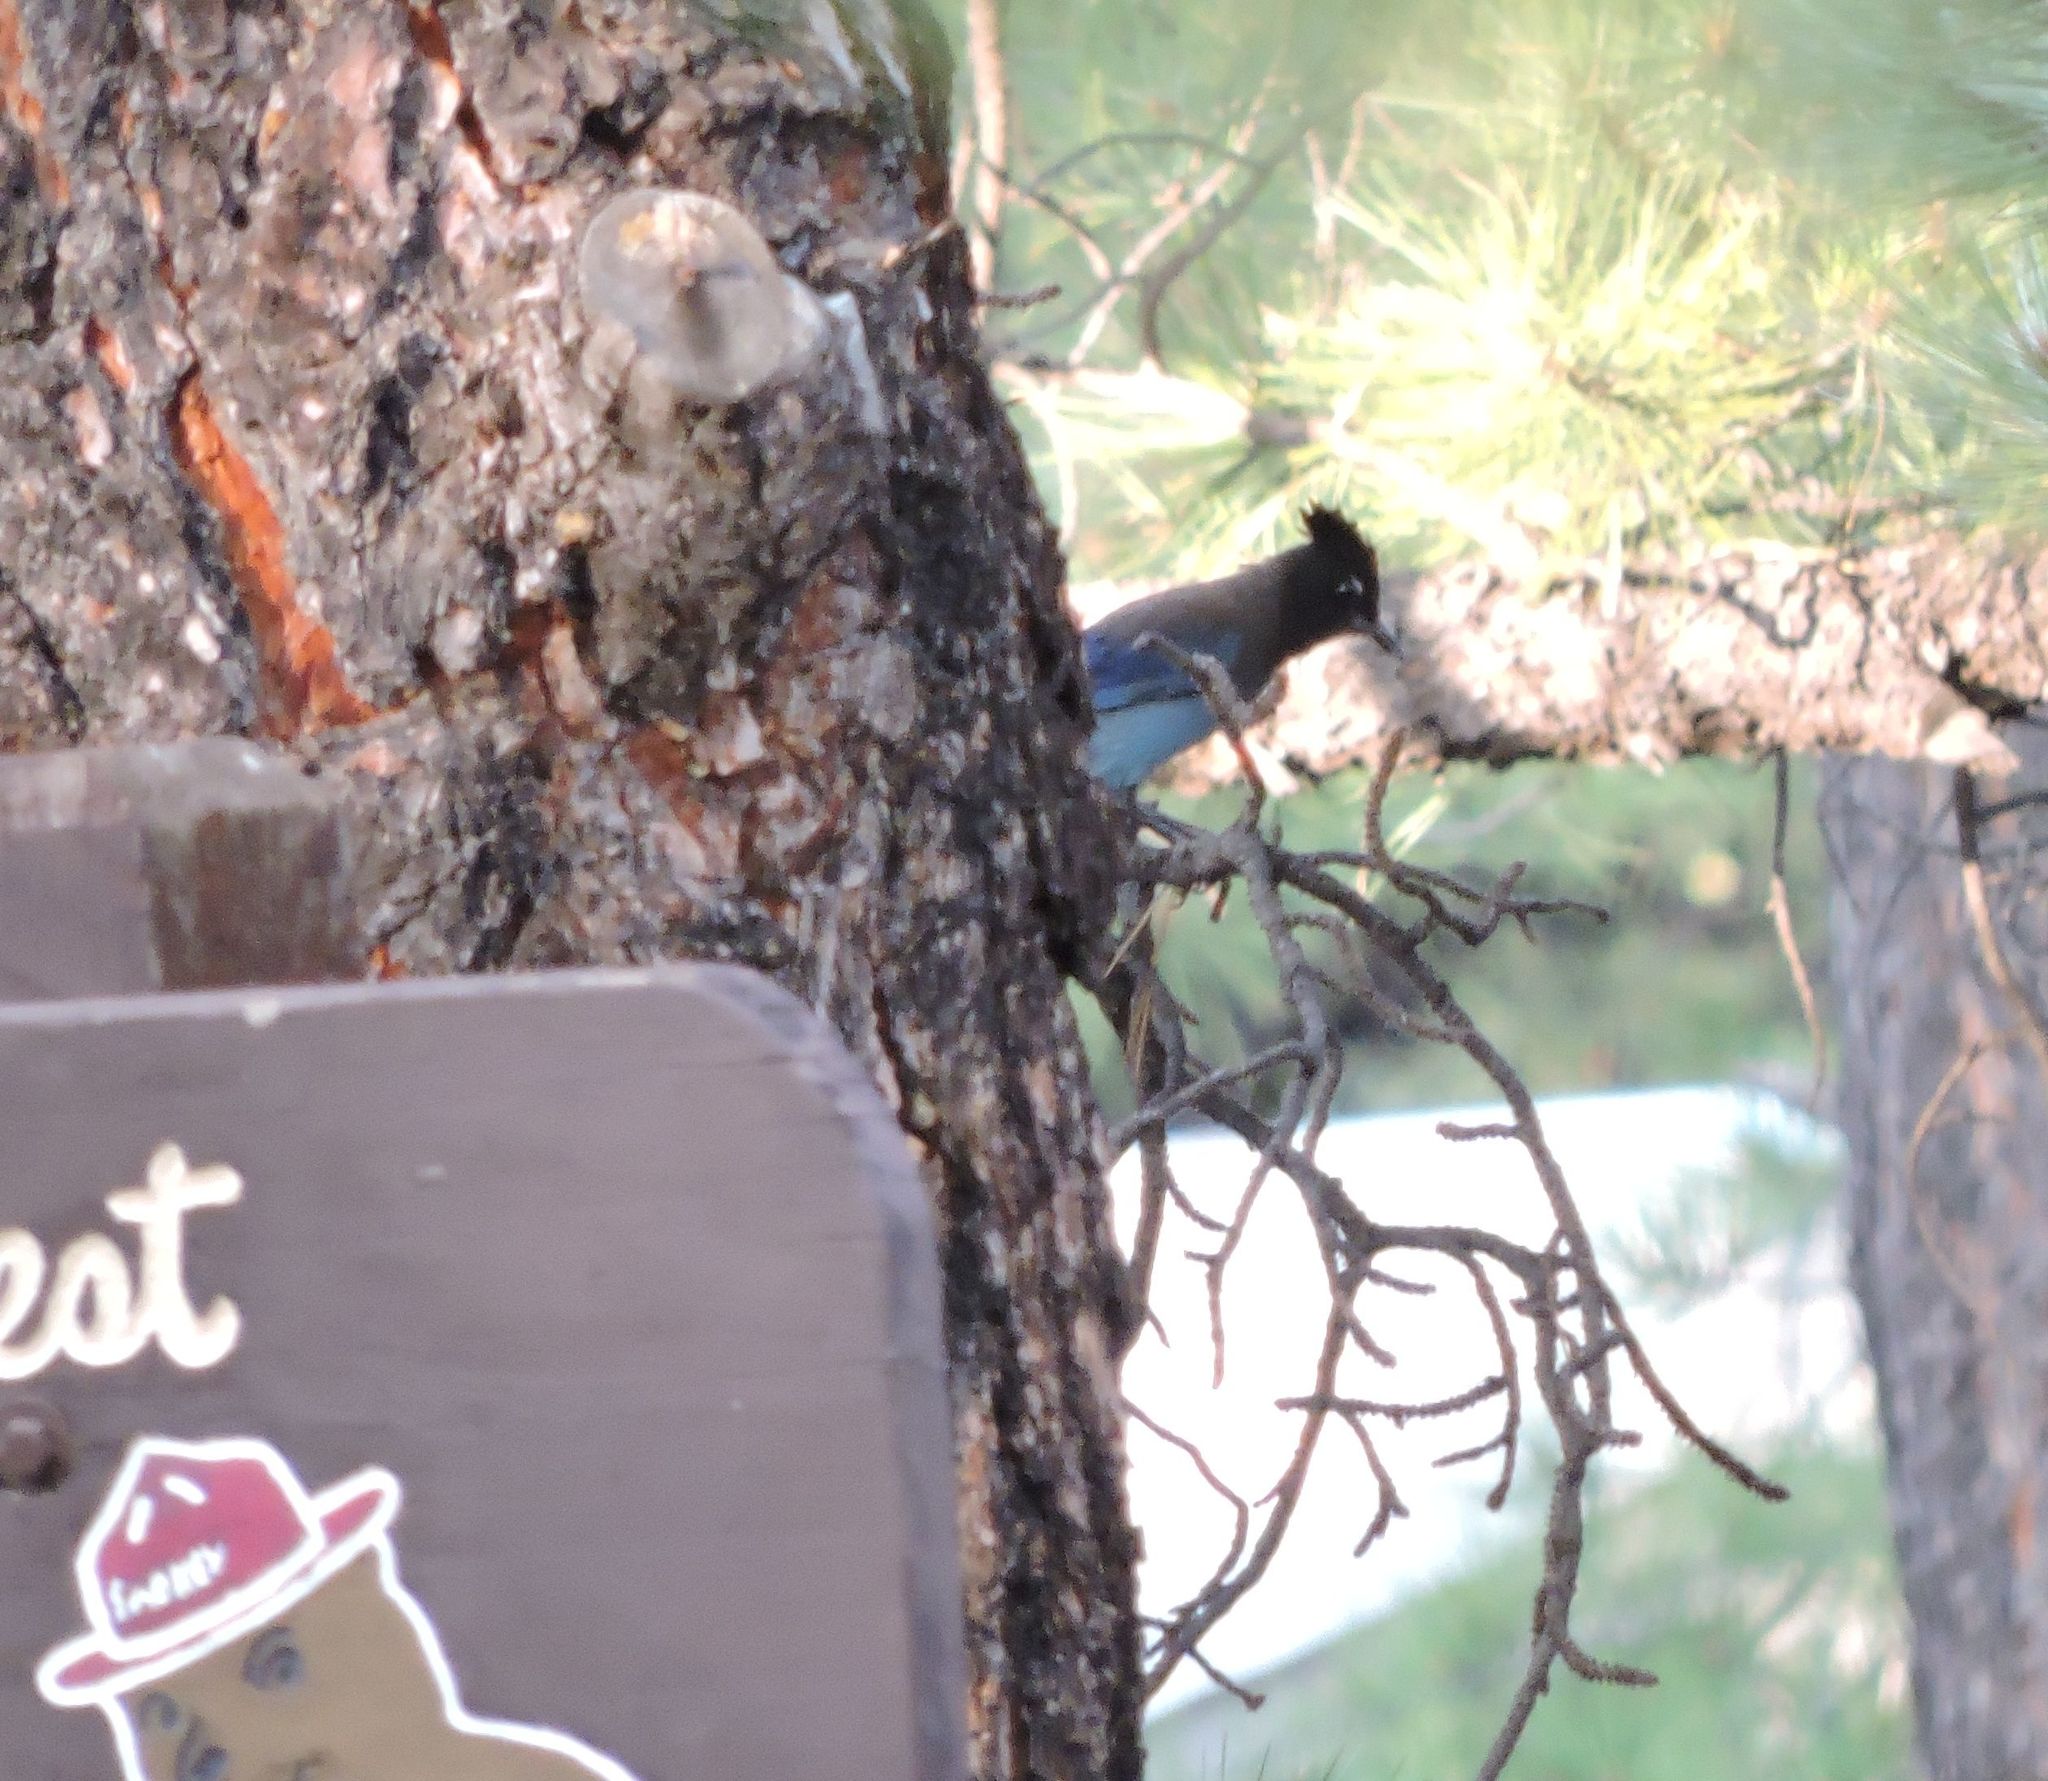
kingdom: Animalia
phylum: Chordata
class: Aves
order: Passeriformes
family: Corvidae
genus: Cyanocitta
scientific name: Cyanocitta stelleri
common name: Steller's jay
